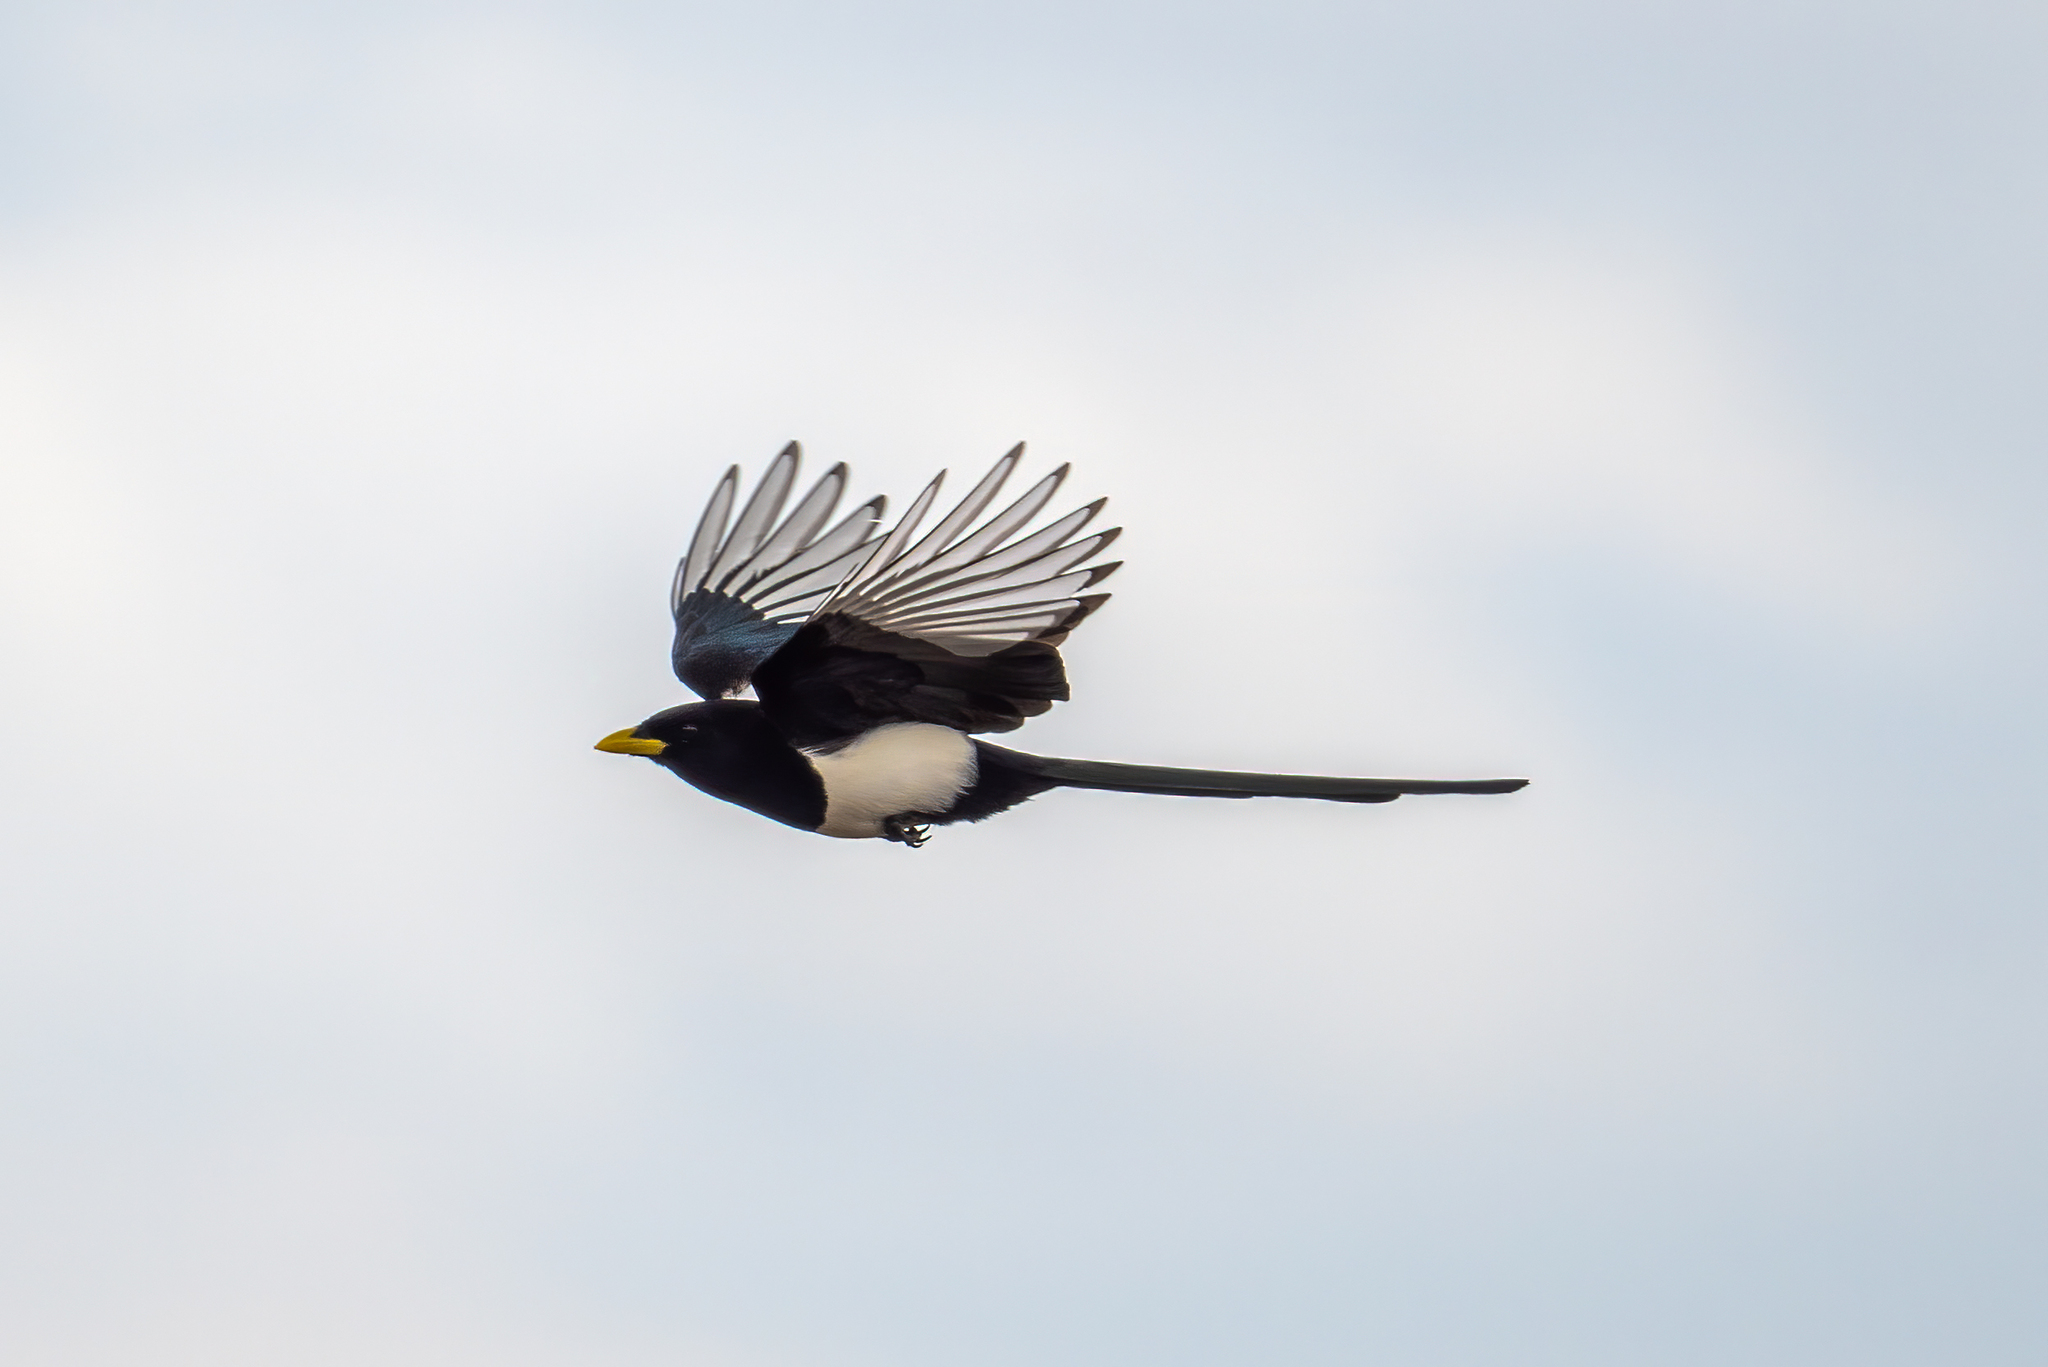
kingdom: Animalia
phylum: Chordata
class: Aves
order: Passeriformes
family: Corvidae
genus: Pica
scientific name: Pica nuttalli
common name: Yellow-billed magpie
